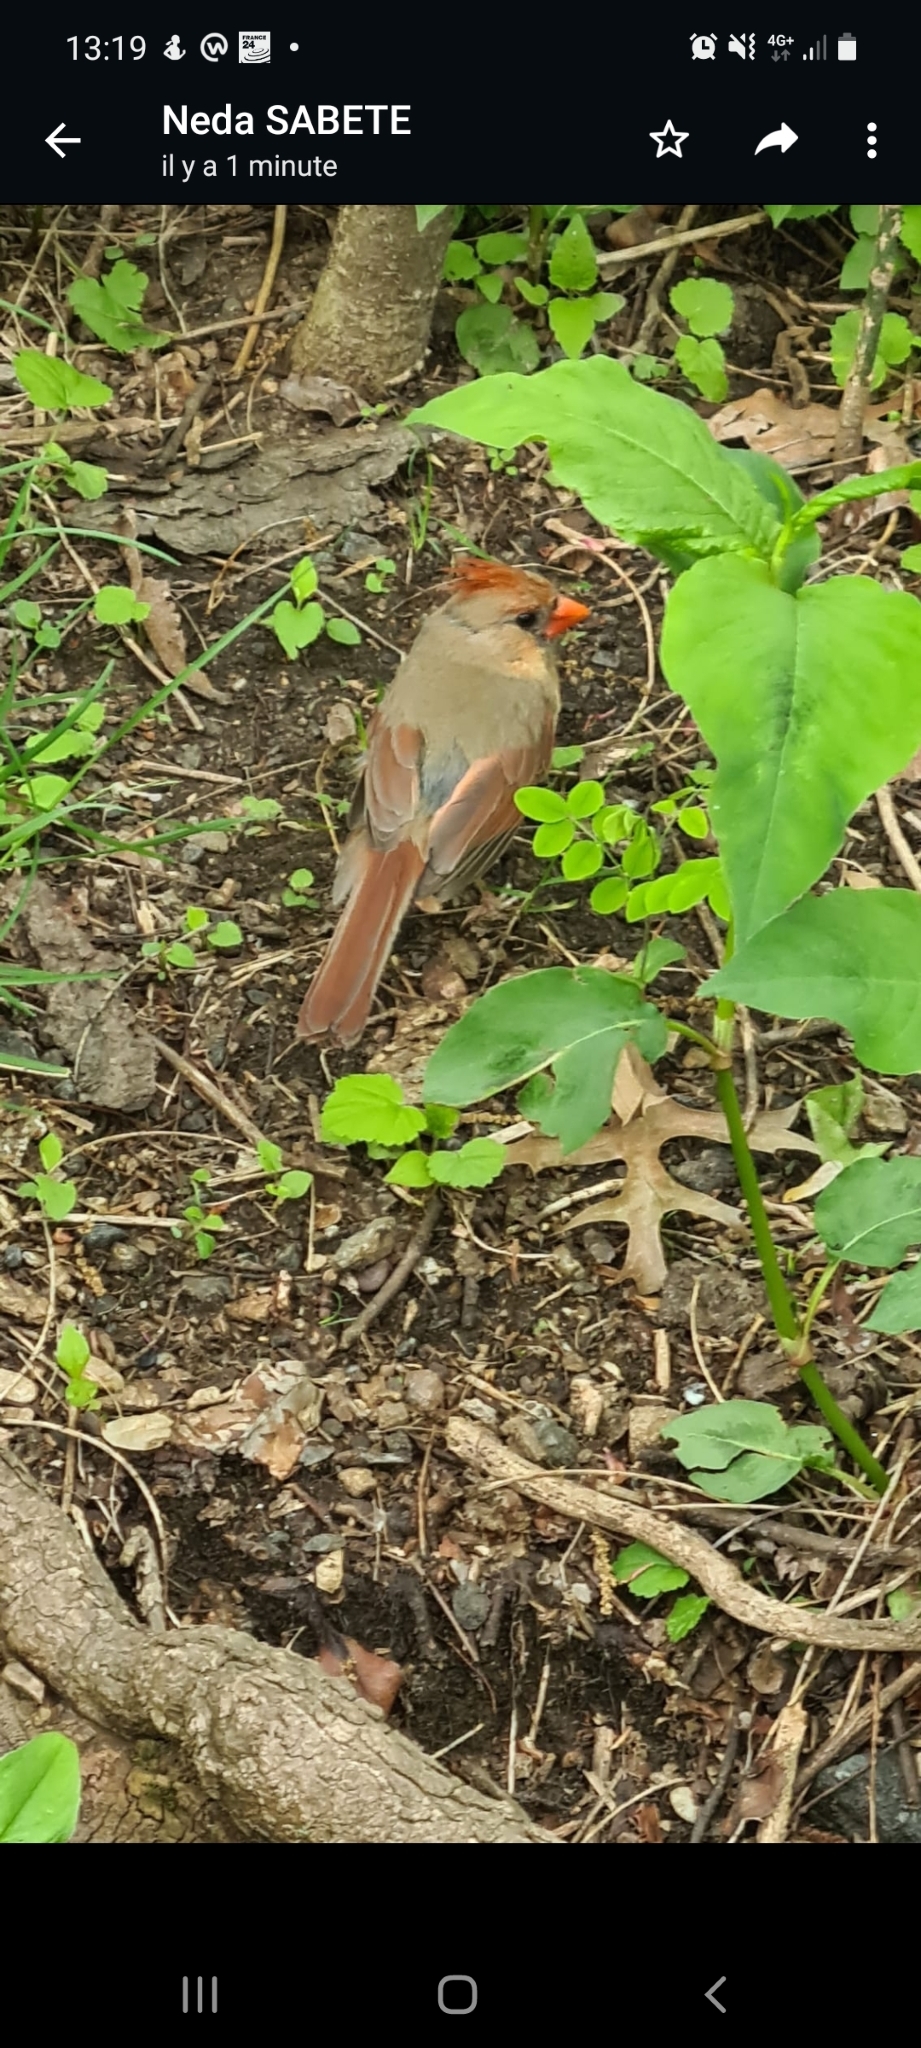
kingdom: Animalia
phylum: Chordata
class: Aves
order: Passeriformes
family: Cardinalidae
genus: Cardinalis
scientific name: Cardinalis cardinalis
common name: Northern cardinal
